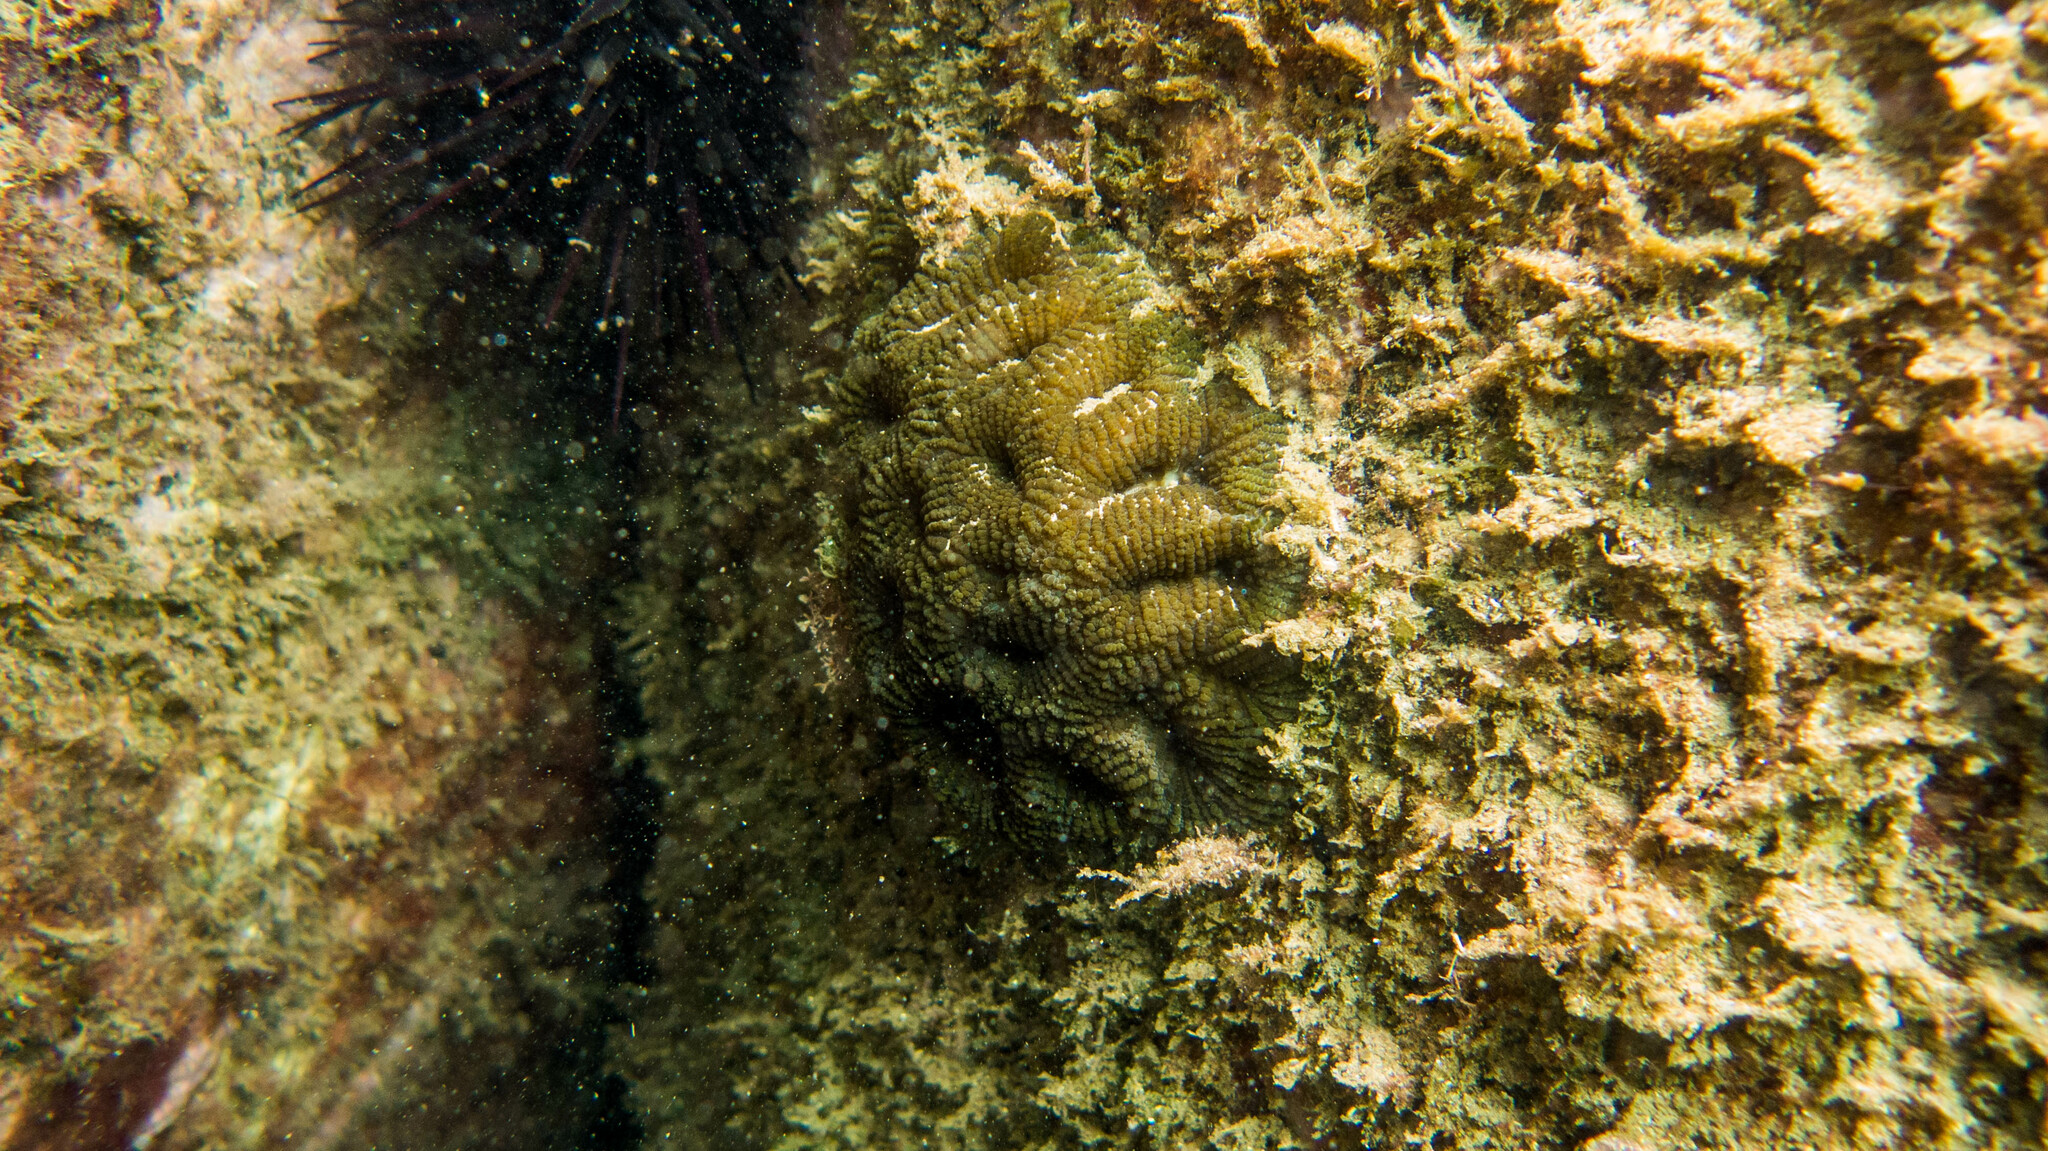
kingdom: Animalia
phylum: Cnidaria
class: Anthozoa
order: Scleractinia
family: Faviidae
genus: Mussismilia
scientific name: Mussismilia hispida
